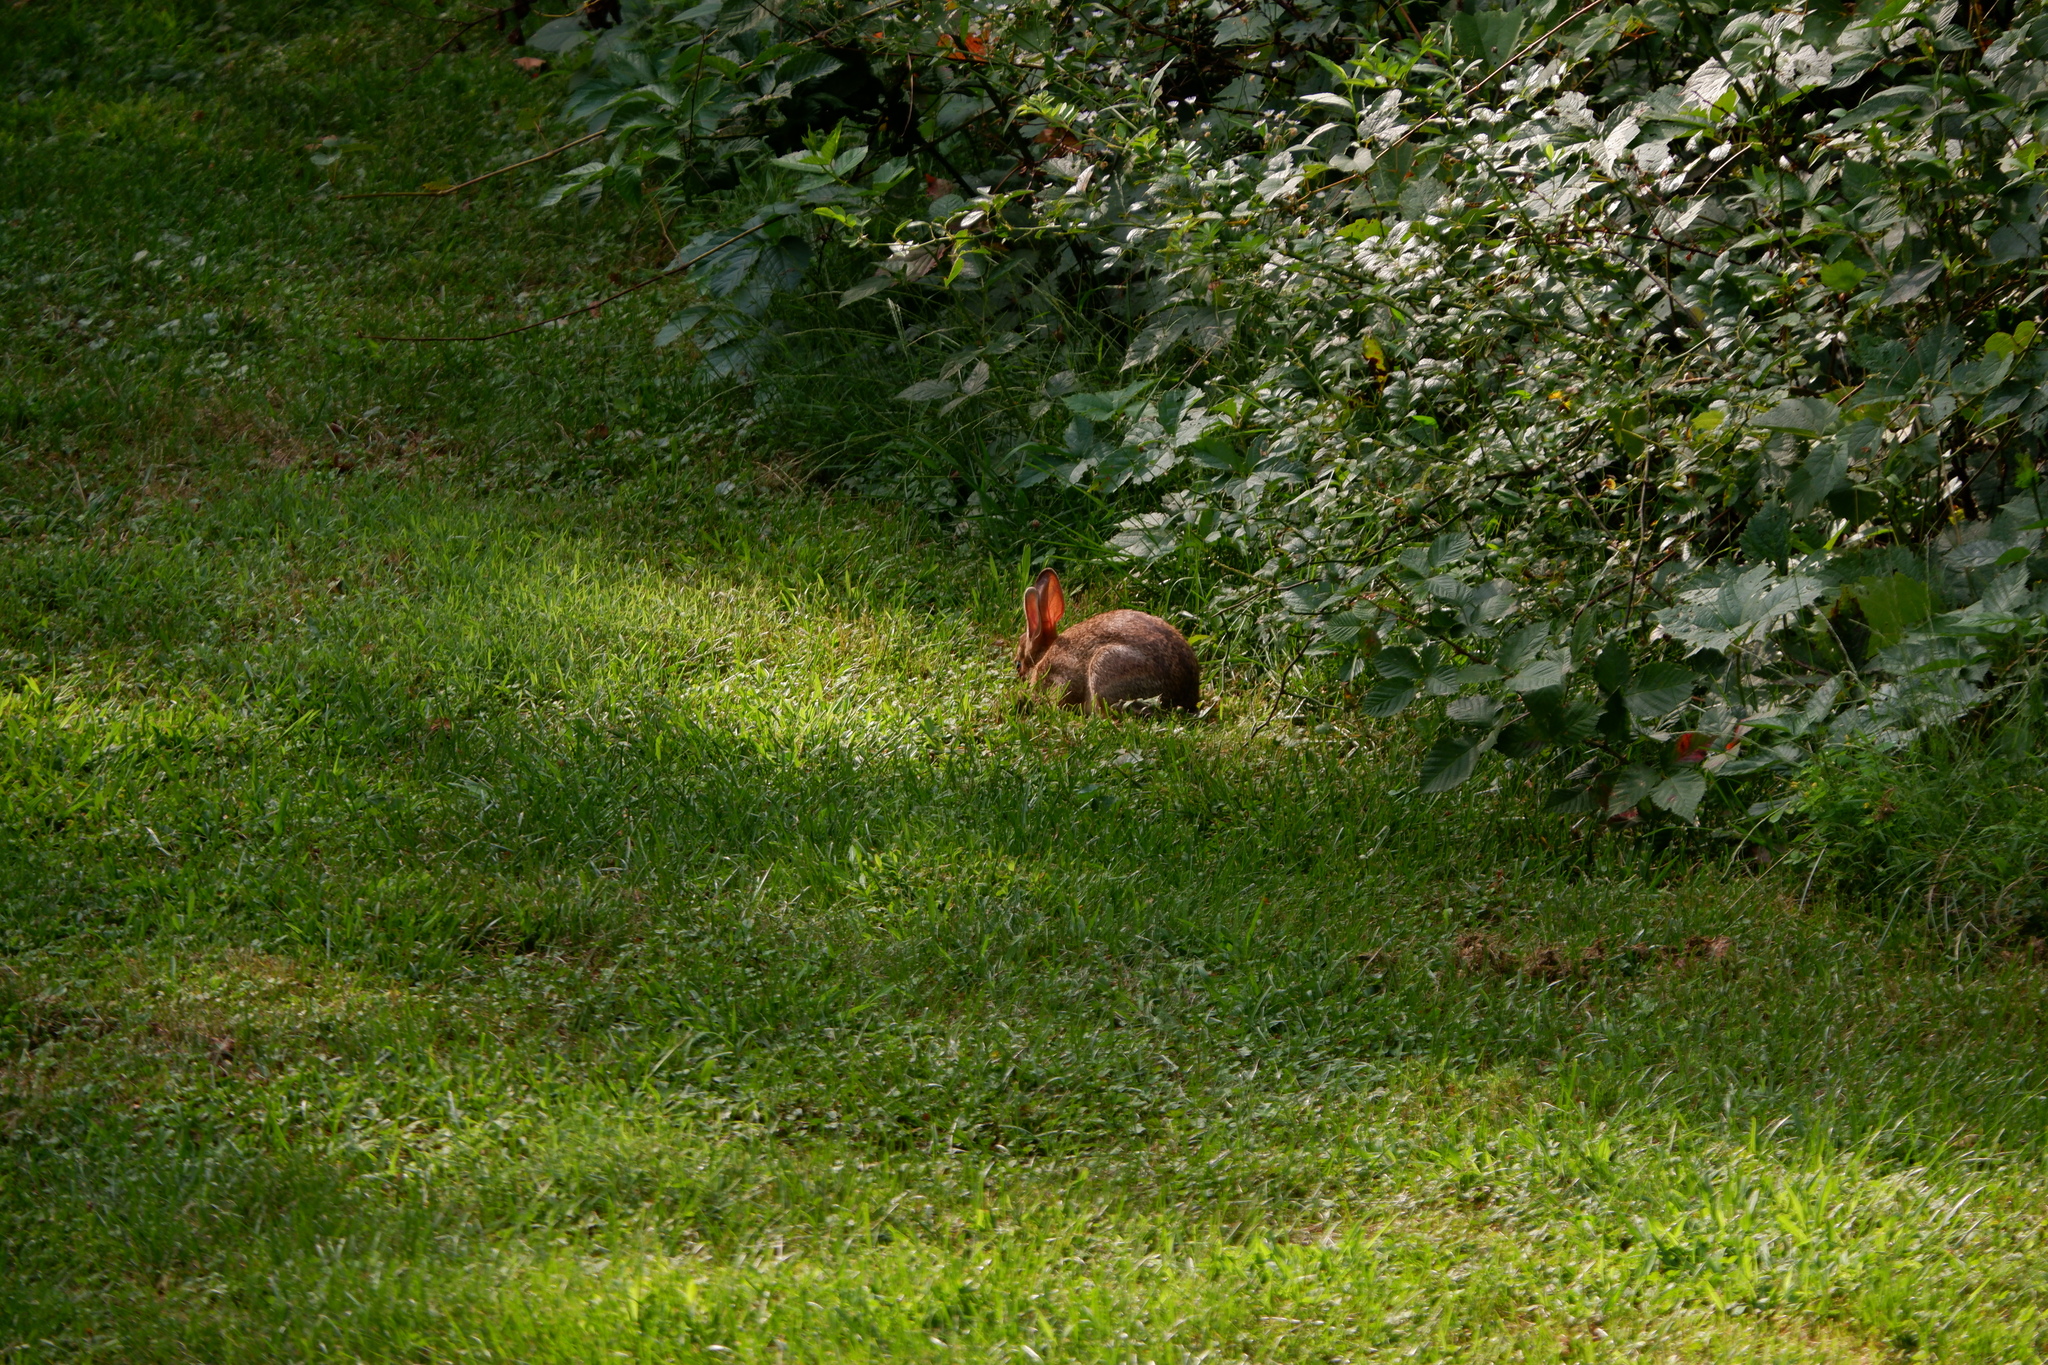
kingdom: Animalia
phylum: Chordata
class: Mammalia
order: Lagomorpha
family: Leporidae
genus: Sylvilagus
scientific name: Sylvilagus floridanus
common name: Eastern cottontail
